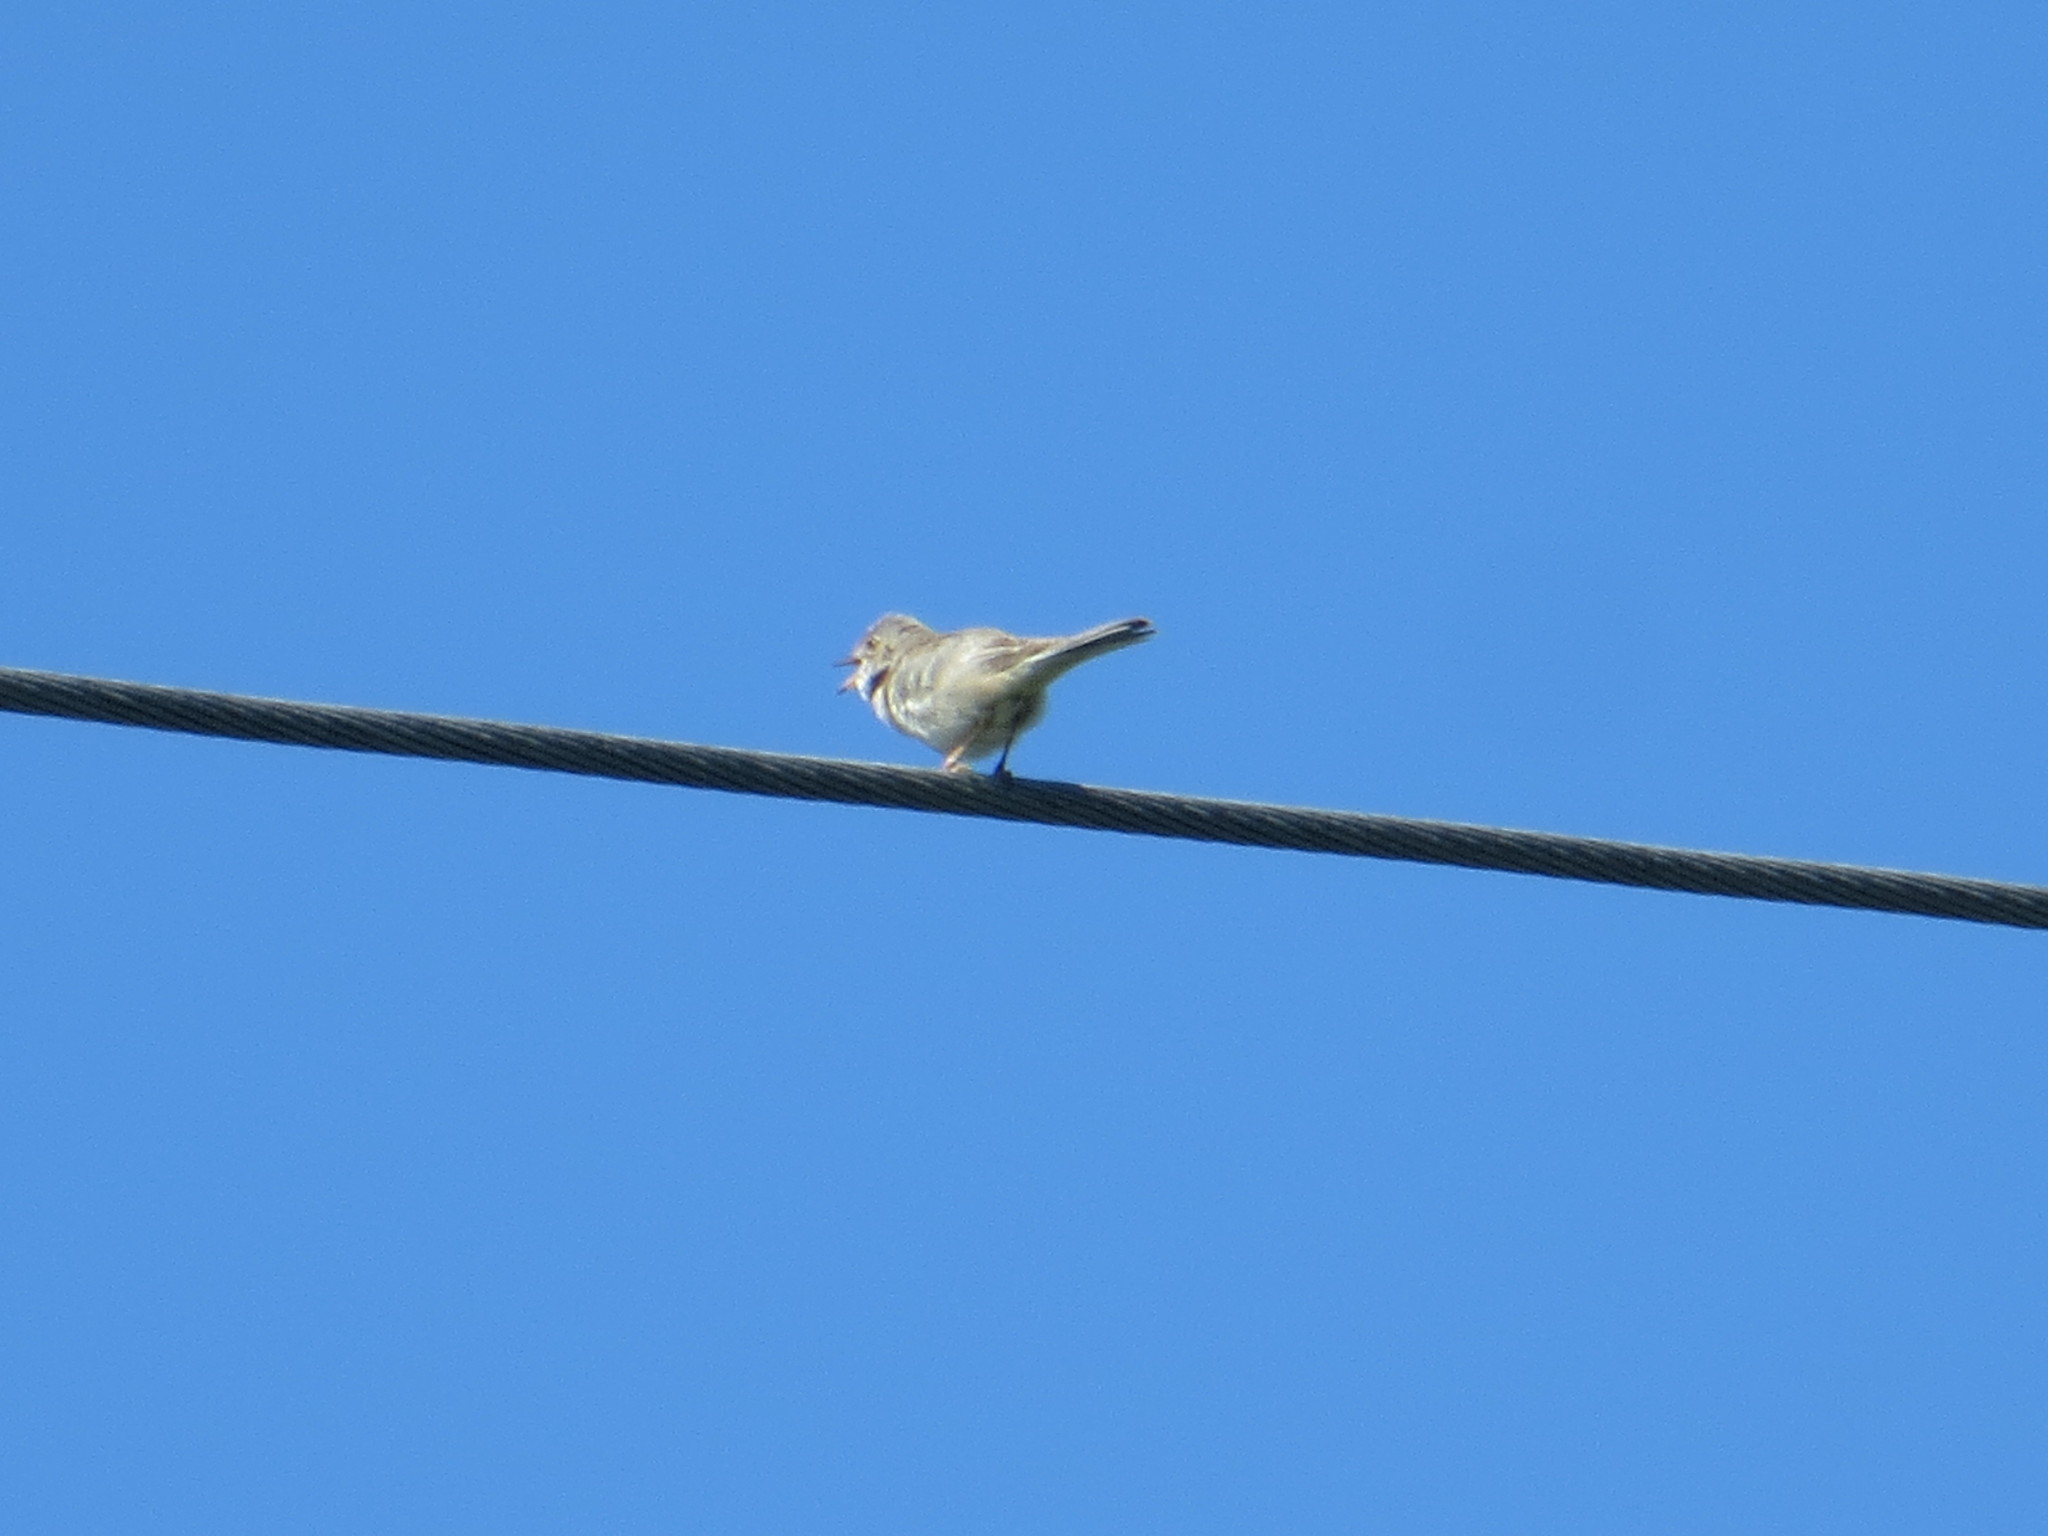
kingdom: Animalia
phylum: Chordata
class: Aves
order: Passeriformes
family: Sylviidae
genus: Sylvia
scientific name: Sylvia communis
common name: Common whitethroat
